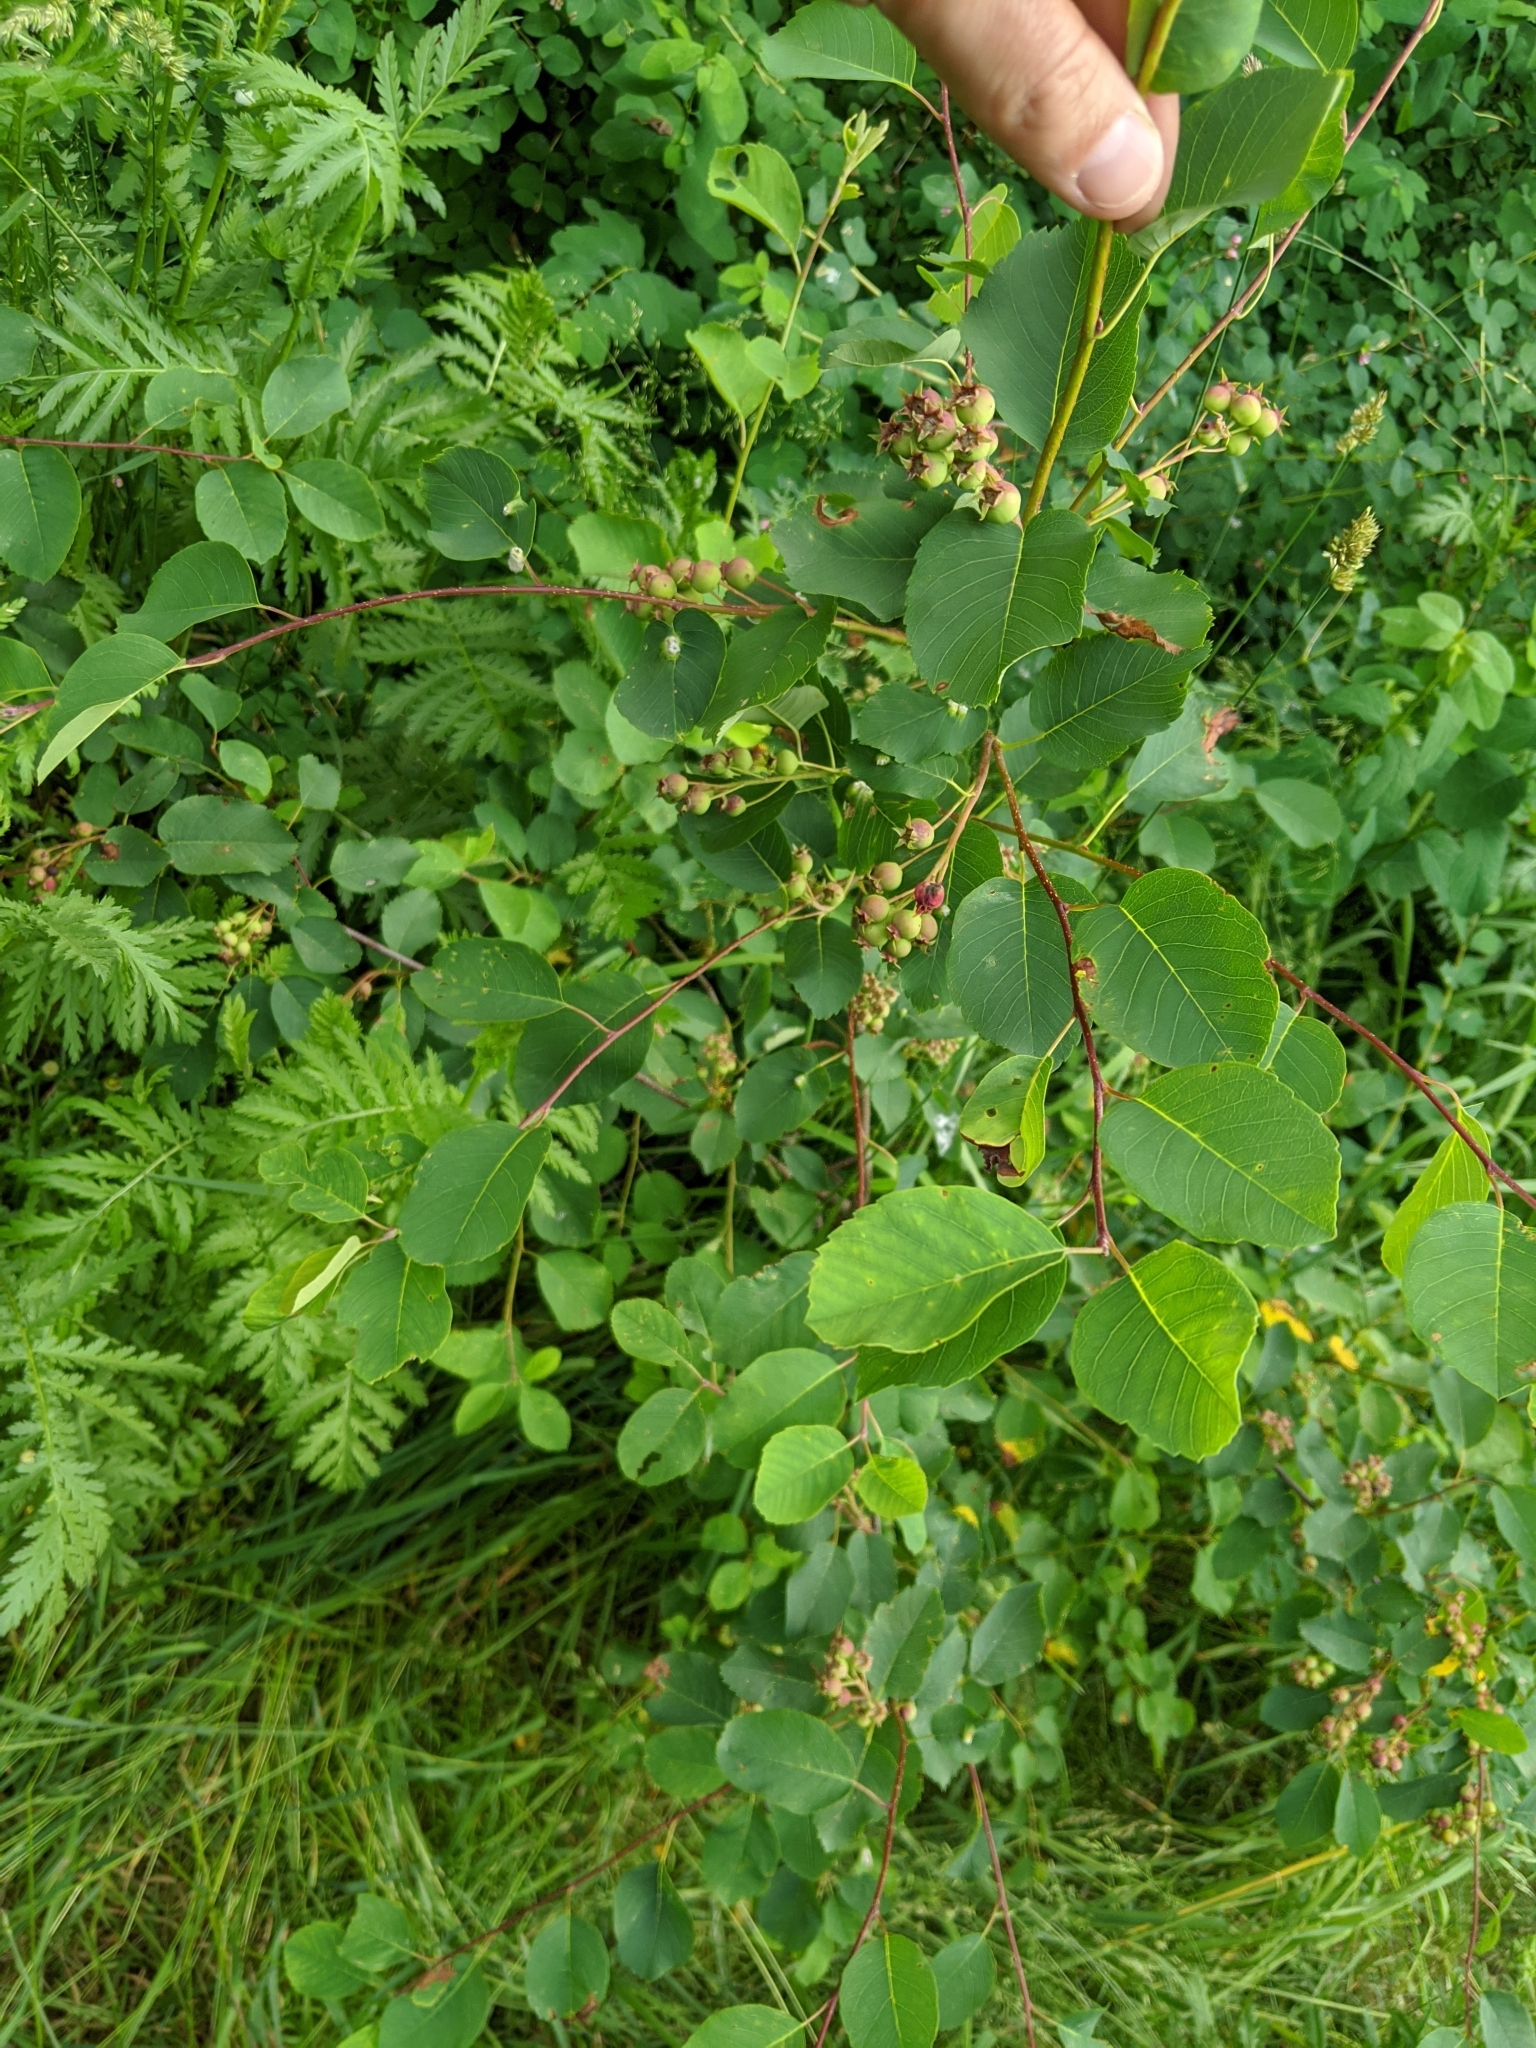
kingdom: Plantae
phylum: Tracheophyta
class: Magnoliopsida
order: Rosales
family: Rosaceae
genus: Amelanchier
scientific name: Amelanchier alnifolia
